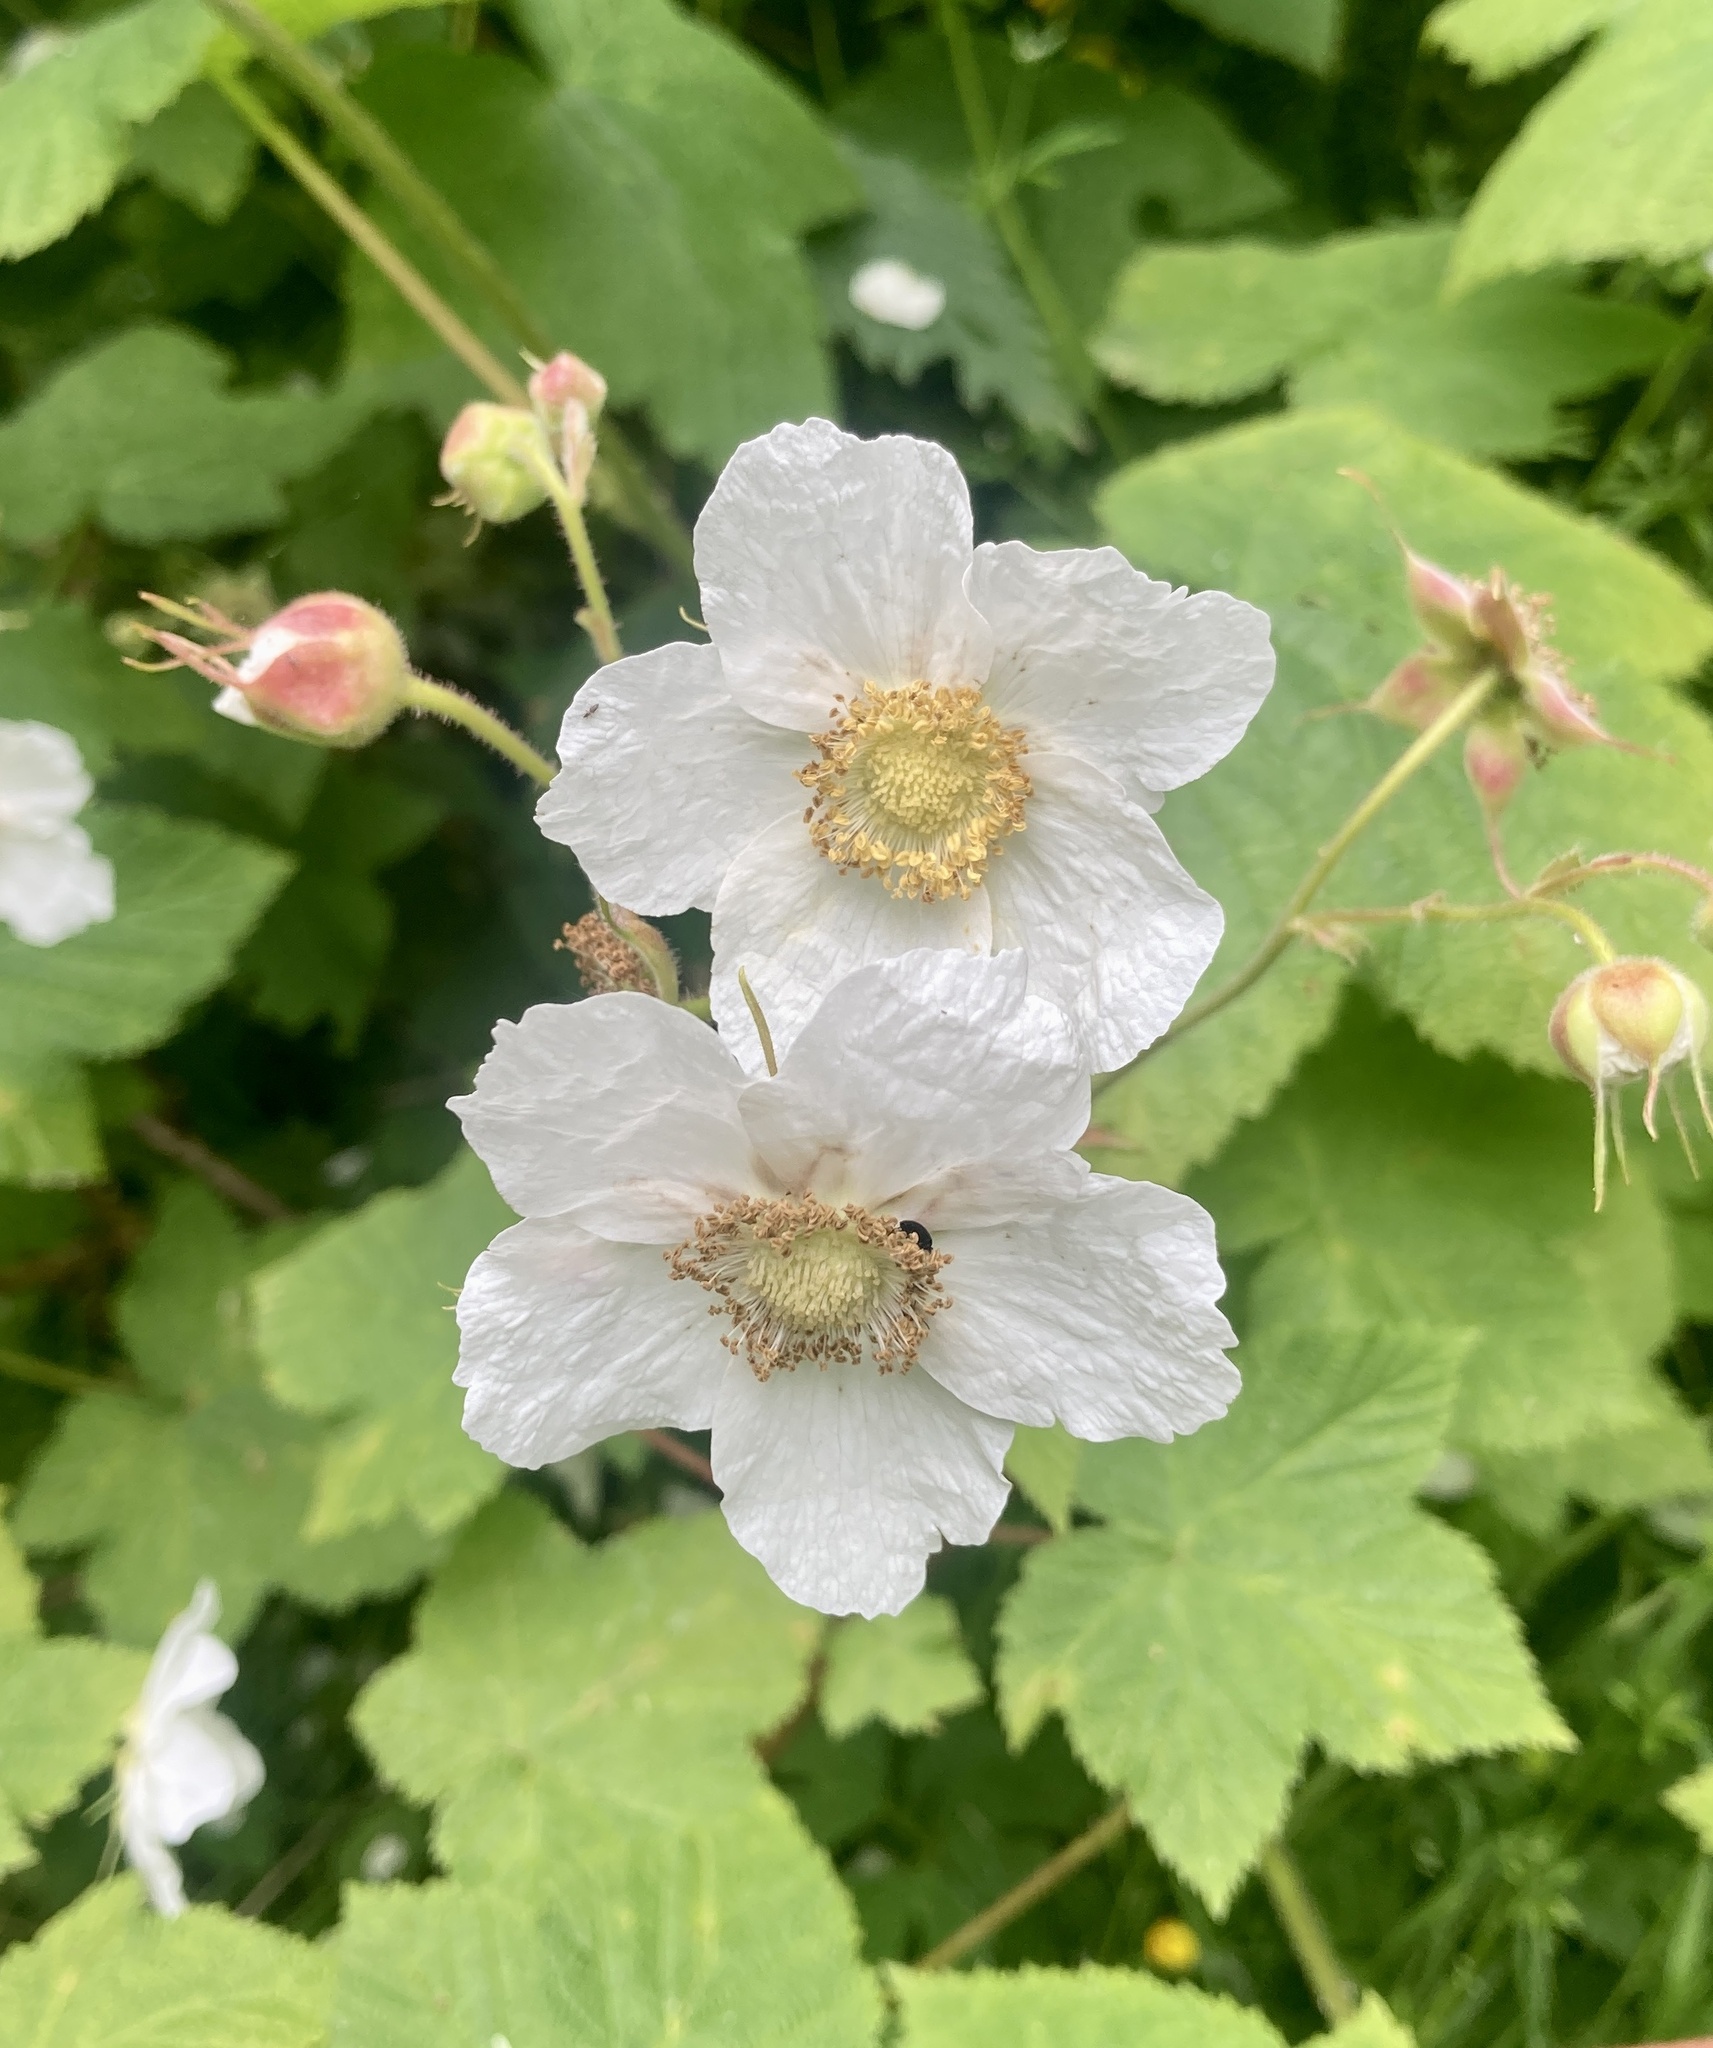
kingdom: Plantae
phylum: Tracheophyta
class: Magnoliopsida
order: Rosales
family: Rosaceae
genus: Rubus
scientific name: Rubus parviflorus
